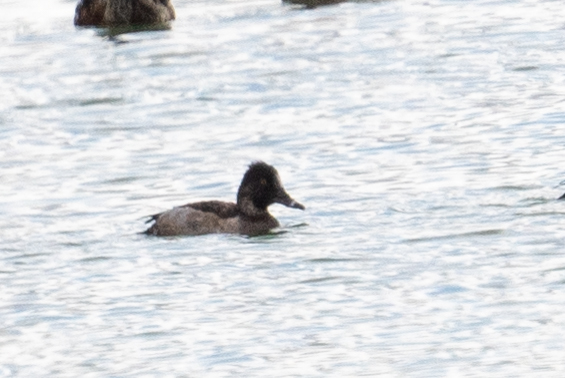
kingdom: Animalia
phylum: Chordata
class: Aves
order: Anseriformes
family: Anatidae
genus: Aythya
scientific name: Aythya collaris
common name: Ring-necked duck
